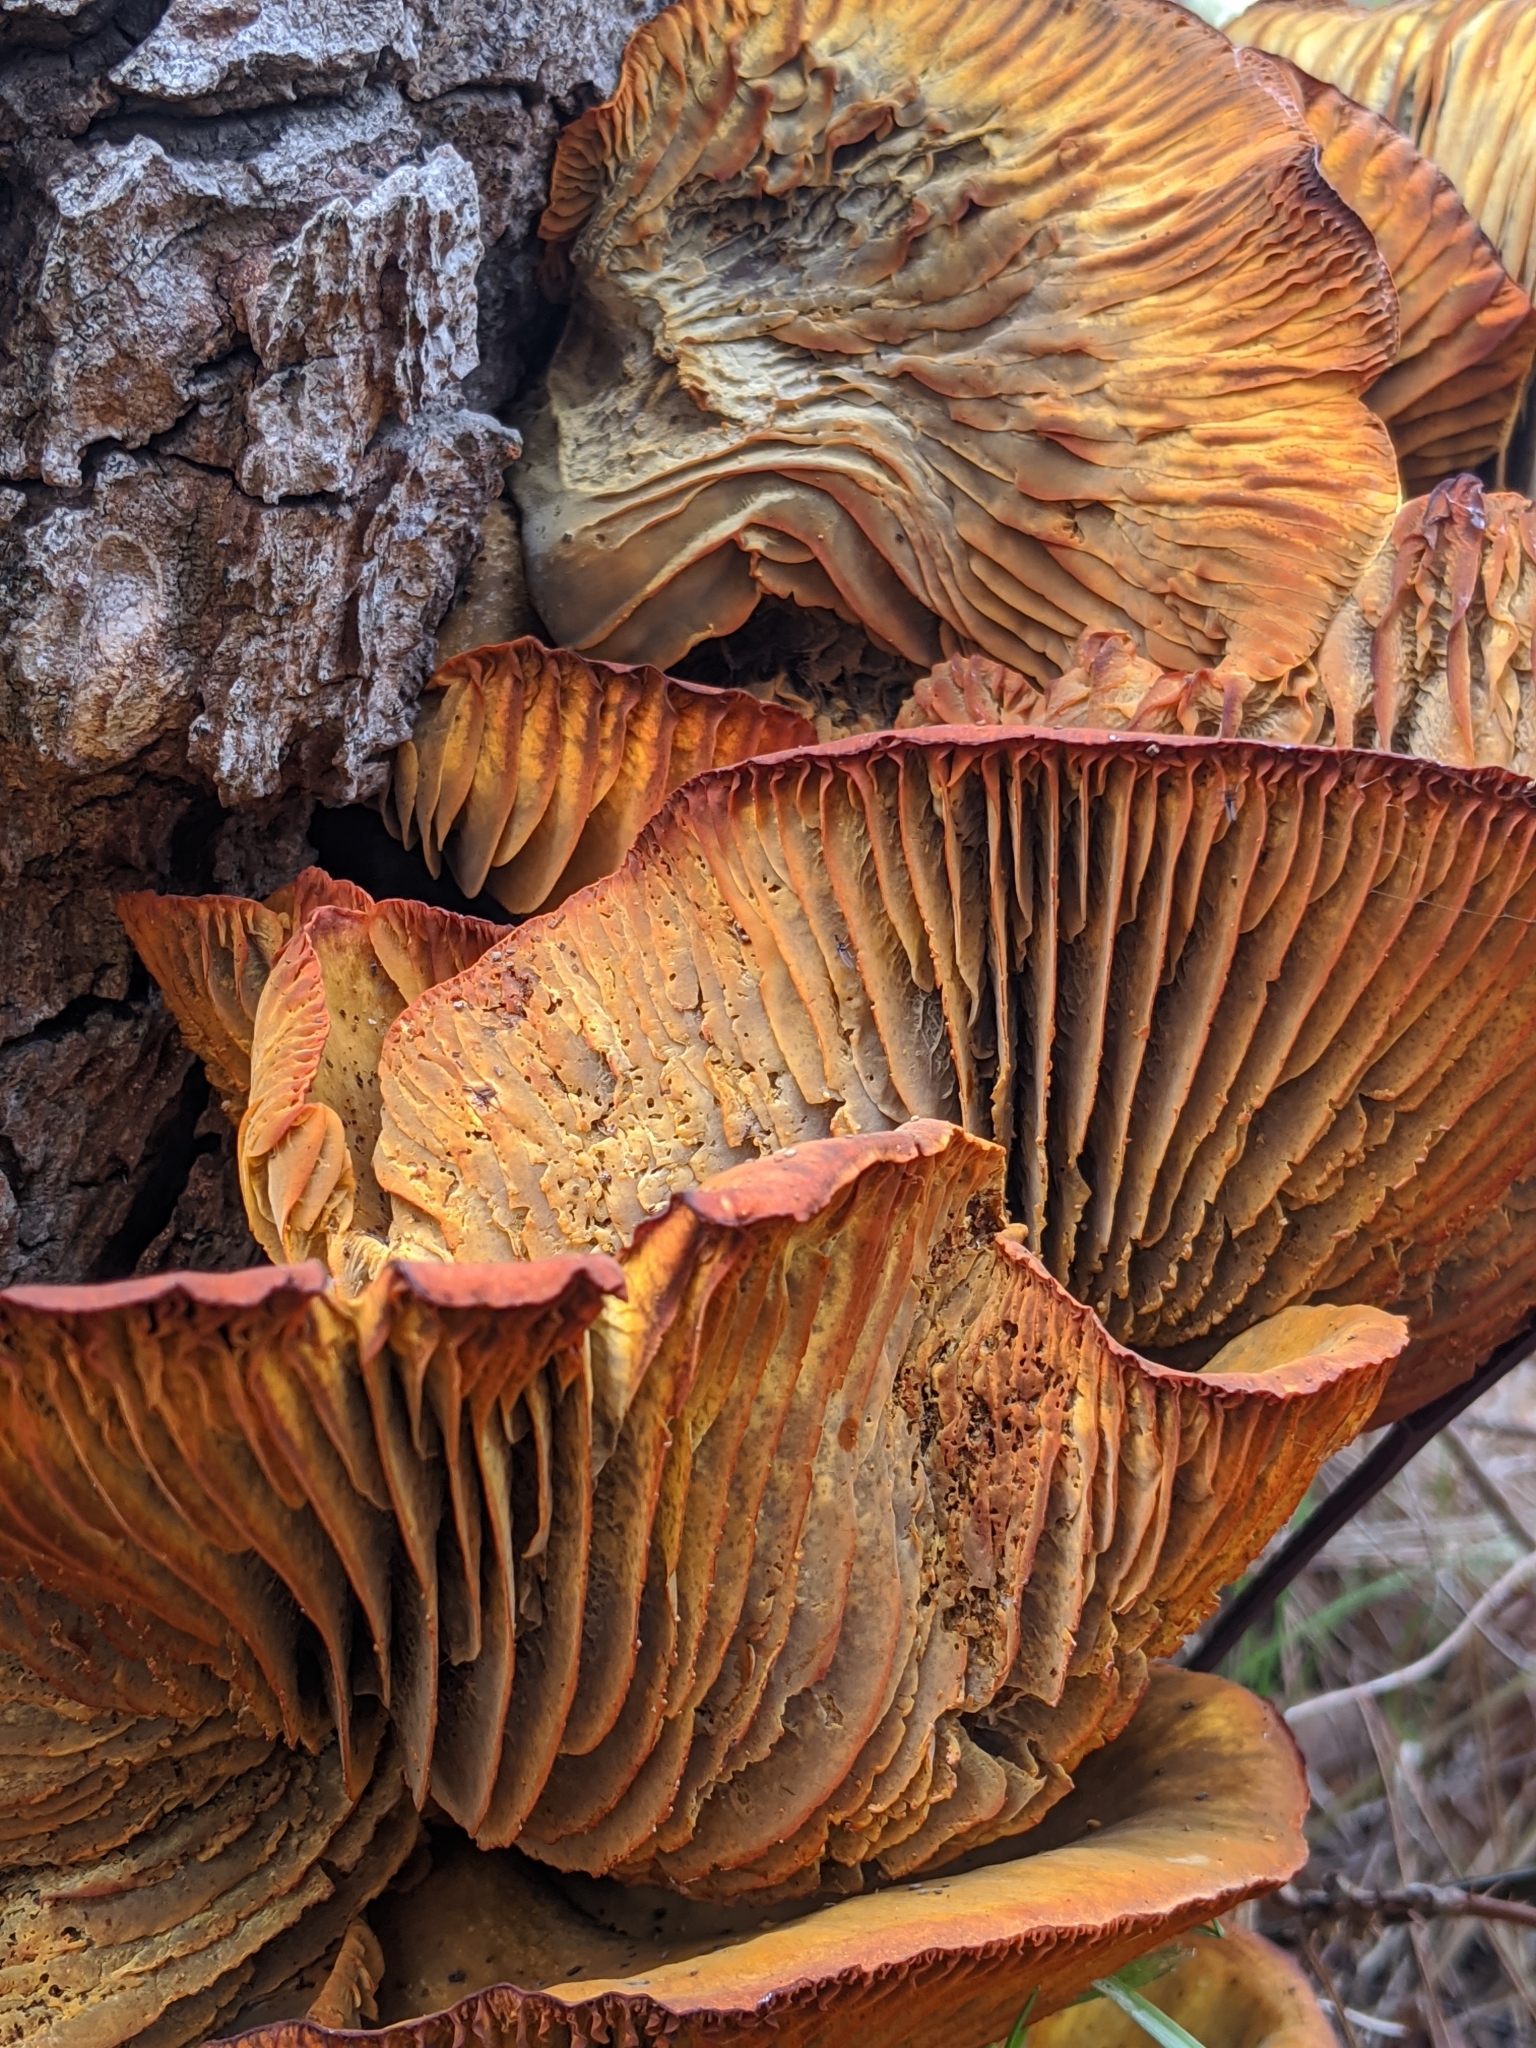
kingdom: Fungi
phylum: Basidiomycota
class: Agaricomycetes
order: Agaricales
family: Omphalotaceae
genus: Omphalotus
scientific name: Omphalotus olivascens
